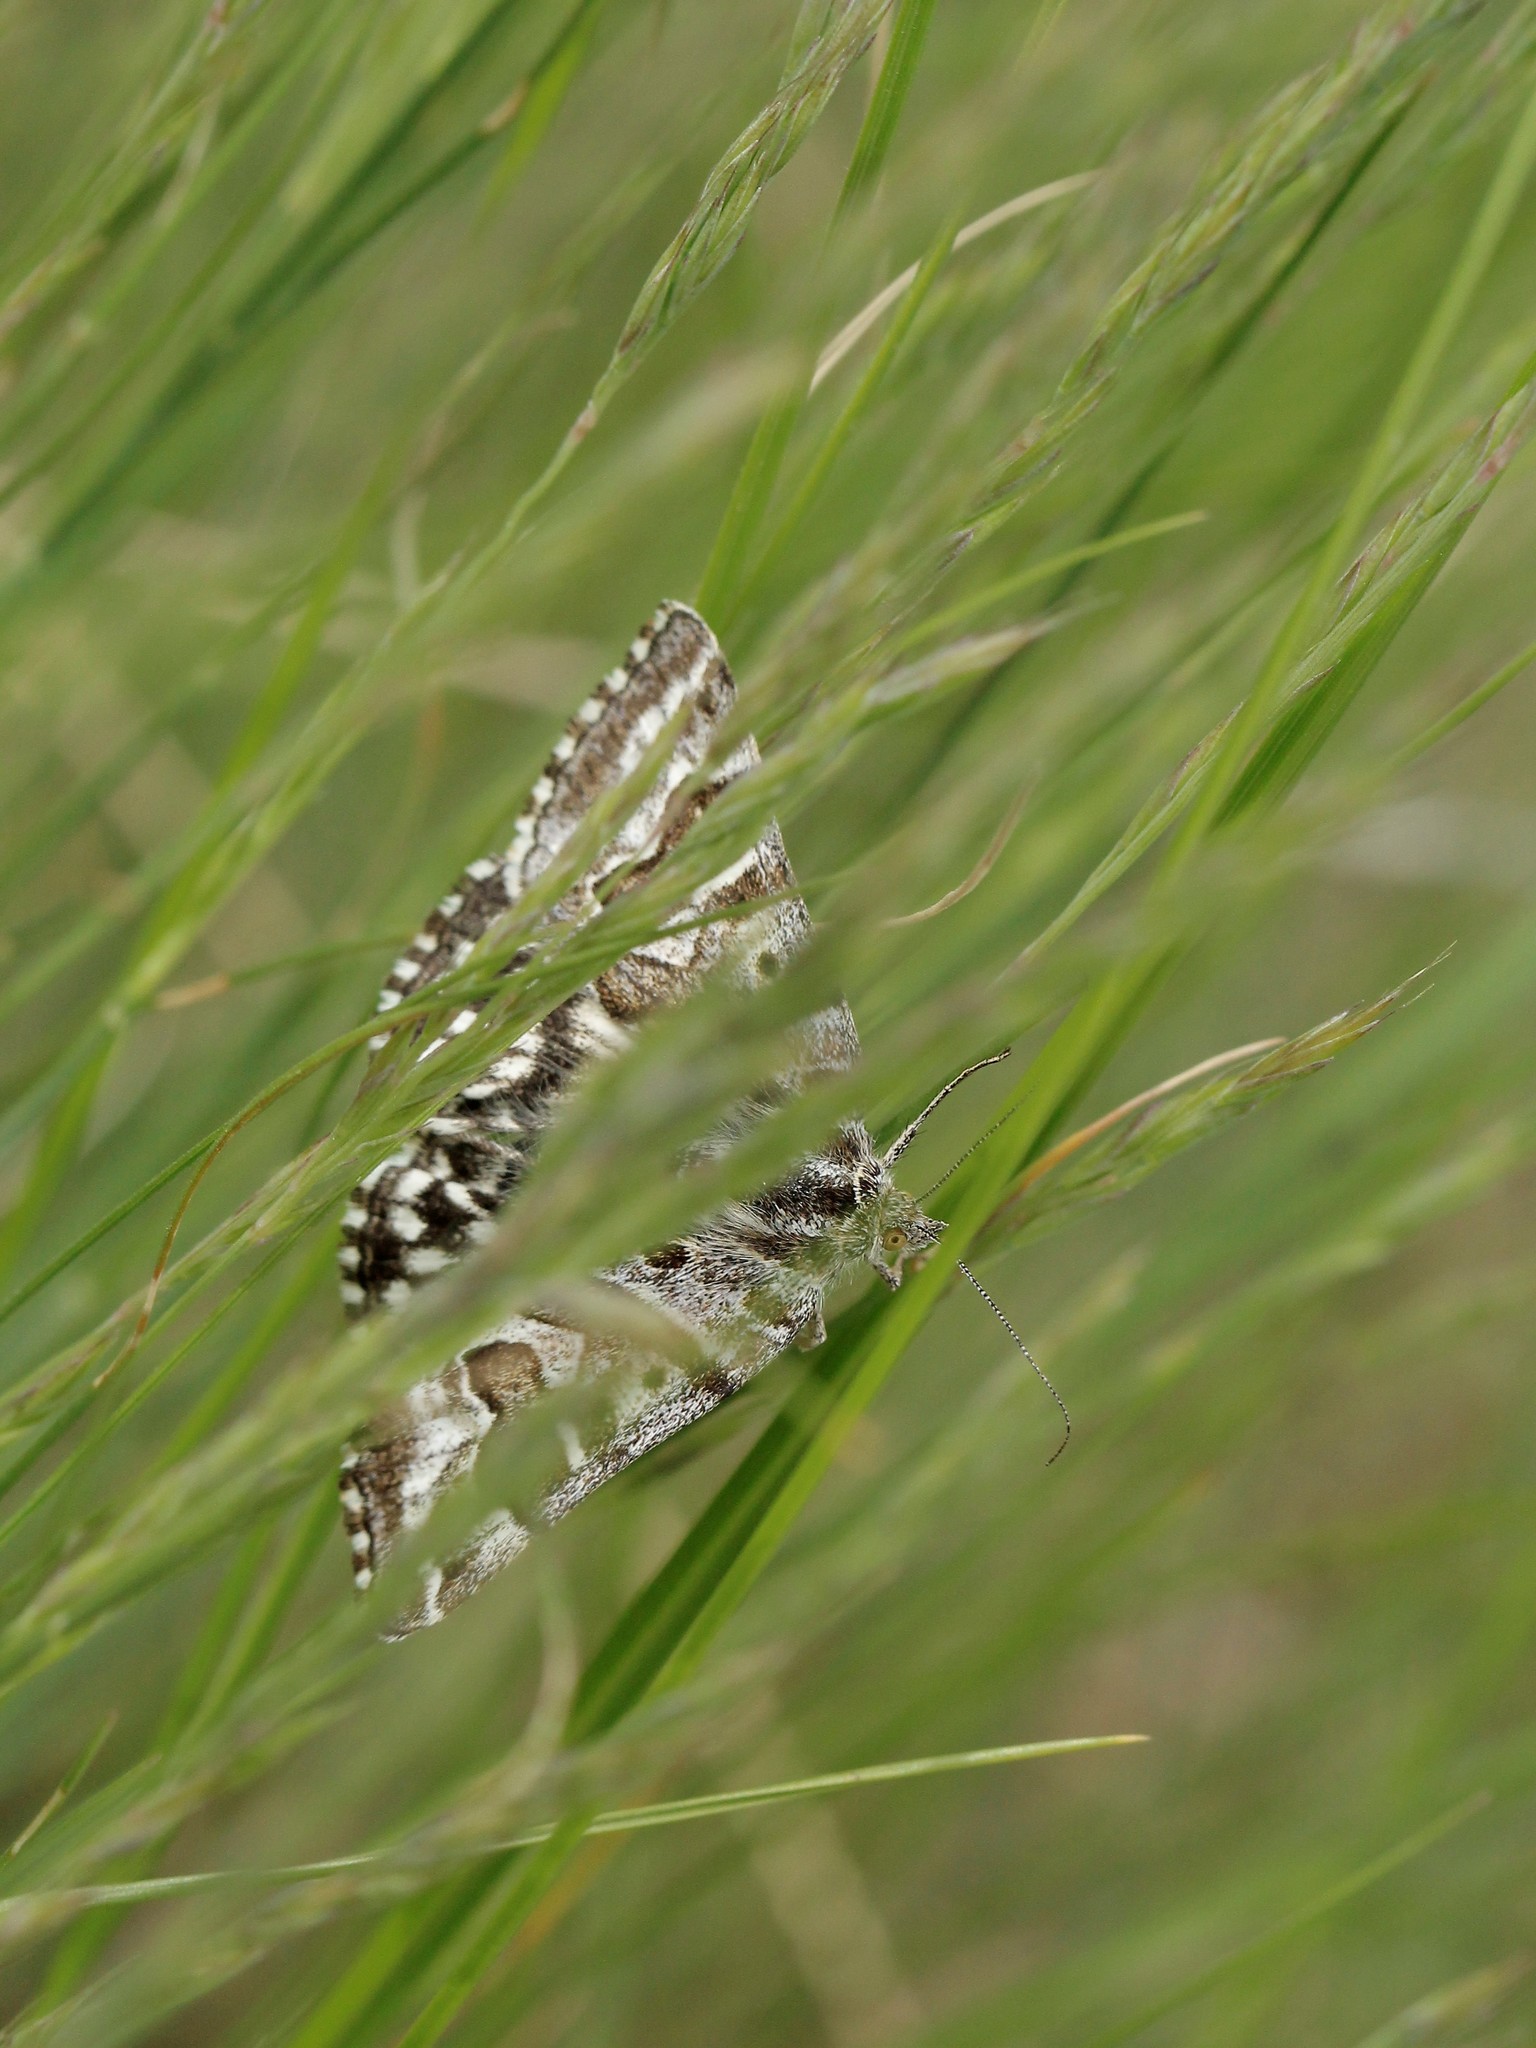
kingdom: Animalia
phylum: Arthropoda
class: Insecta
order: Lepidoptera
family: Erebidae
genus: Callistege
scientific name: Callistege mi
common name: Mother shipton
